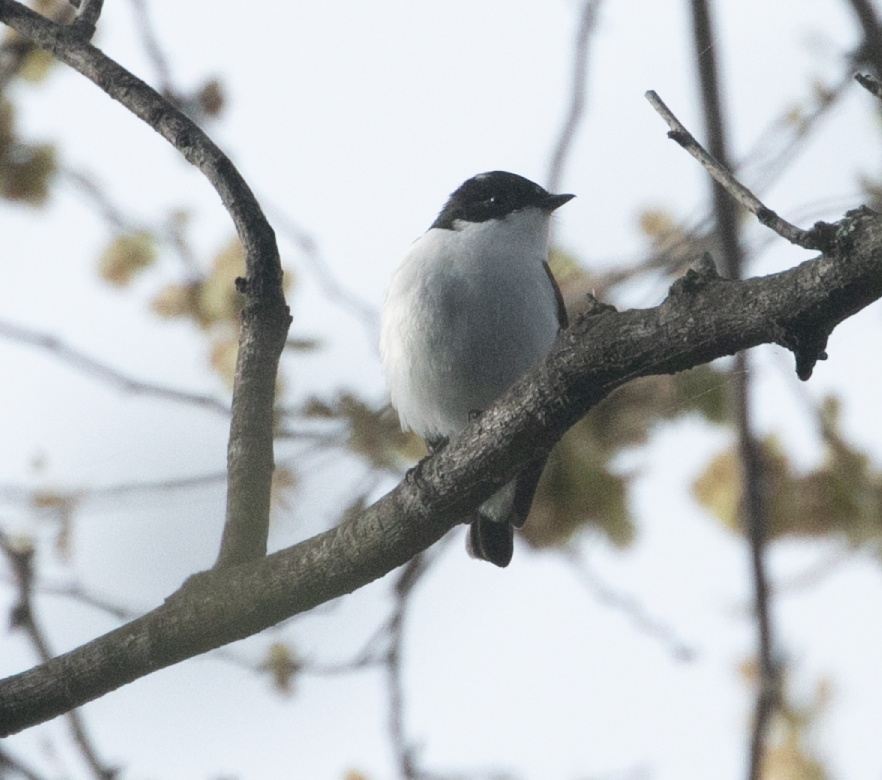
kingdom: Animalia
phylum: Chordata
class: Aves
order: Passeriformes
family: Muscicapidae
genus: Ficedula
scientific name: Ficedula hypoleuca
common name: European pied flycatcher
